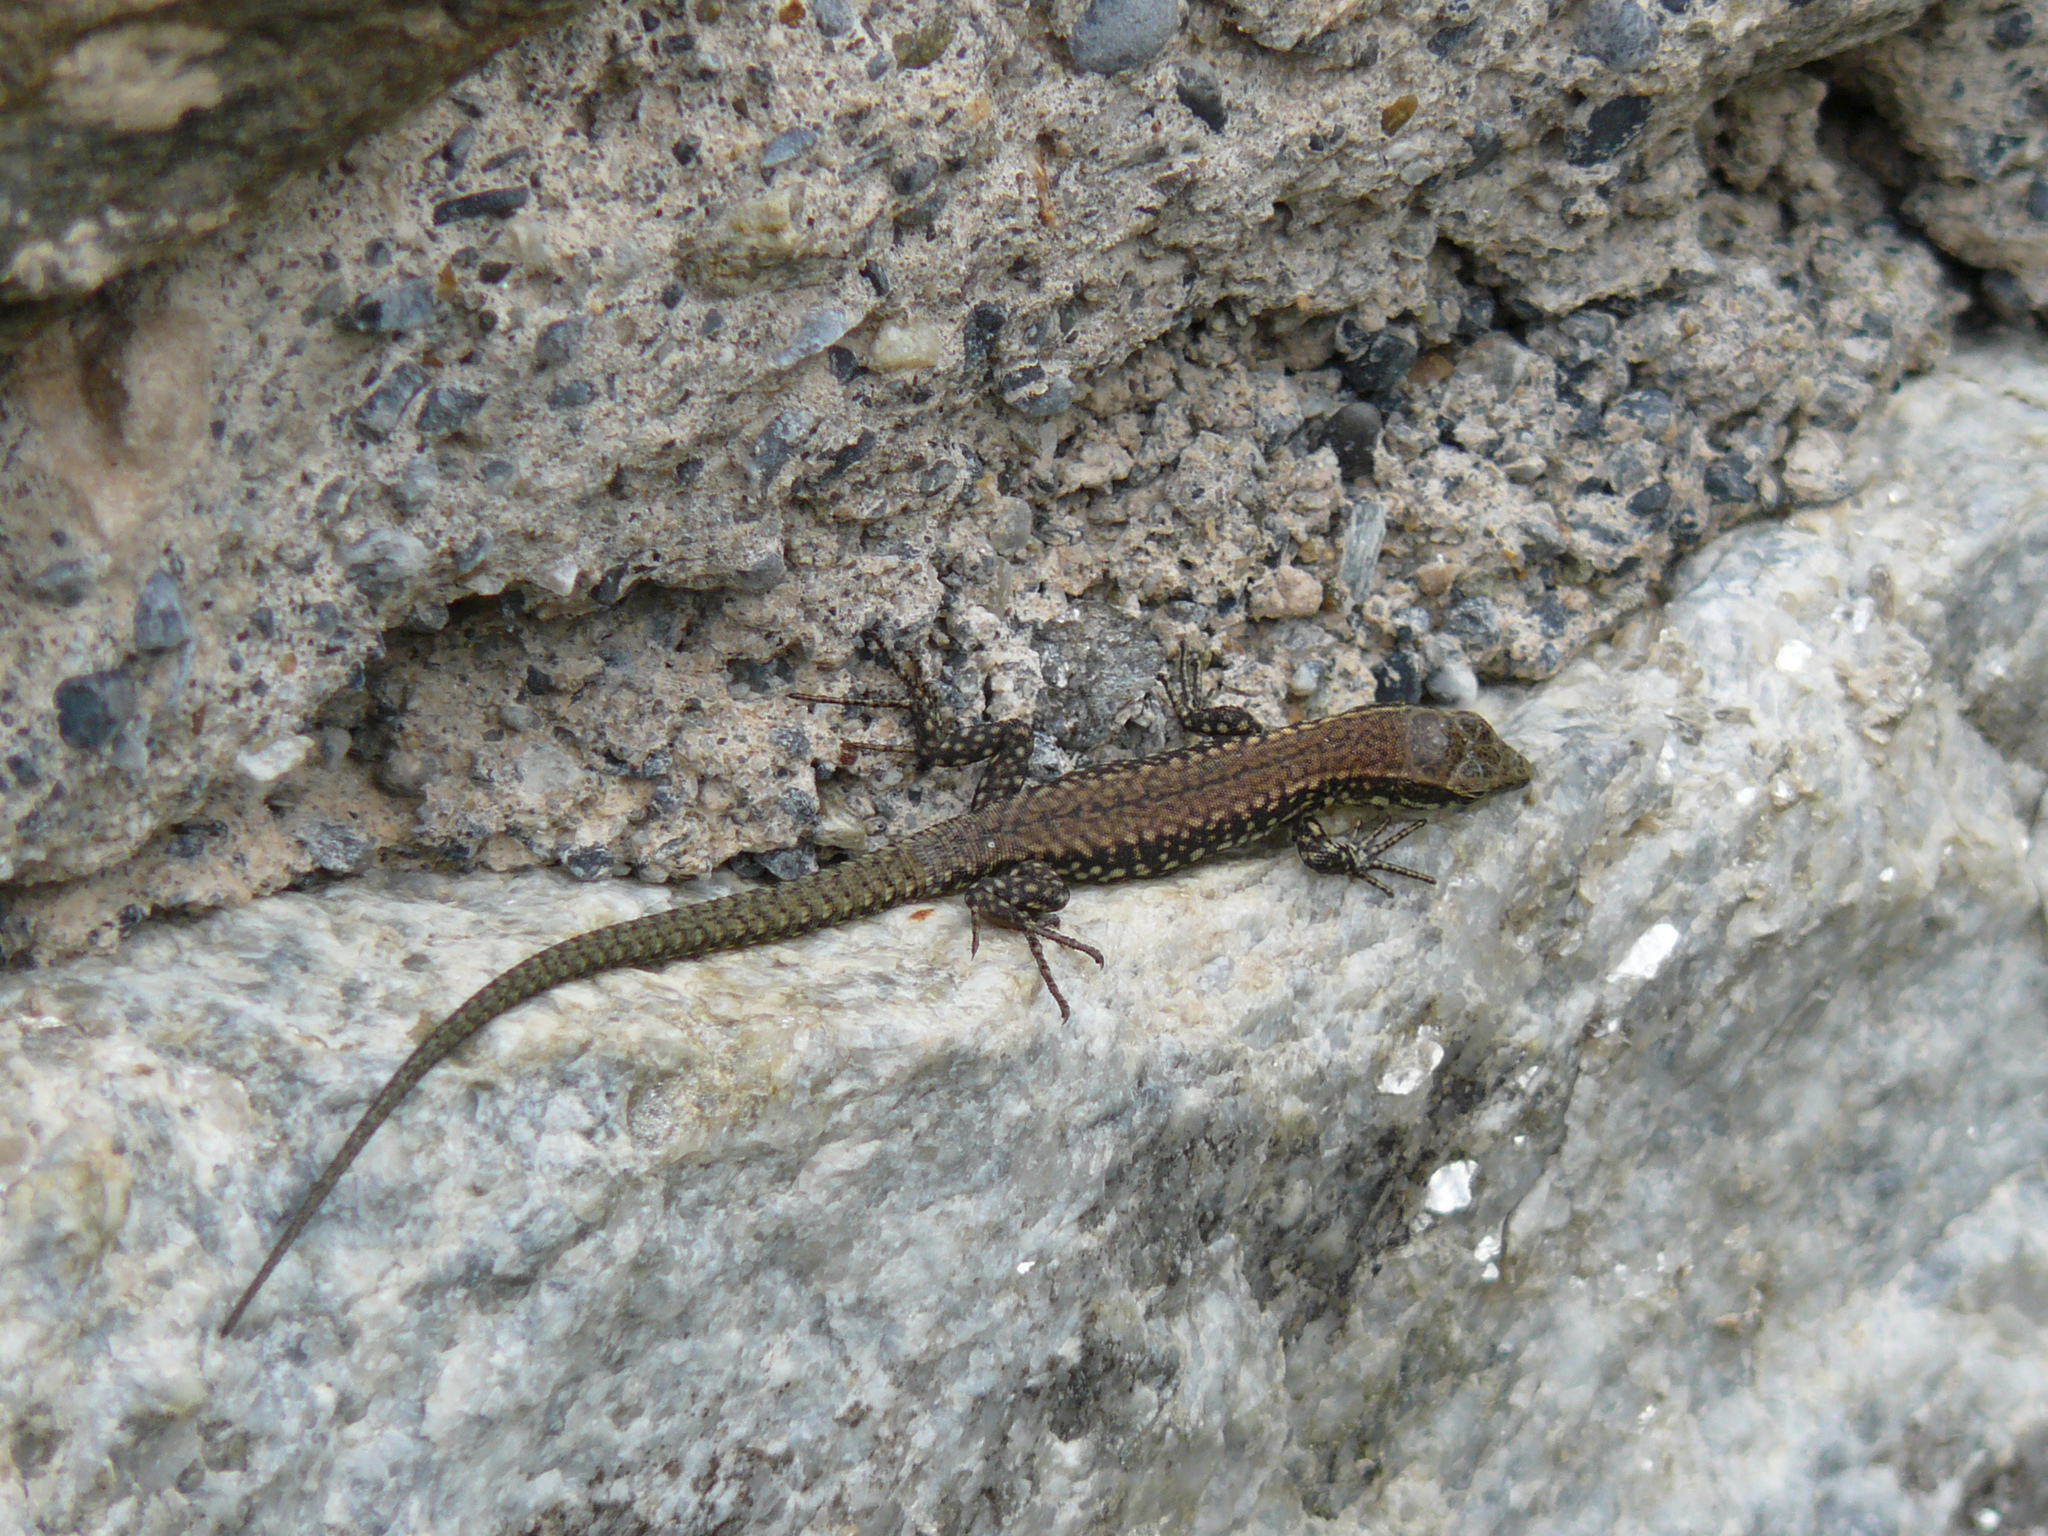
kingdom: Animalia
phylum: Chordata
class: Squamata
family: Lacertidae
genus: Podarcis
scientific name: Podarcis muralis
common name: Common wall lizard
